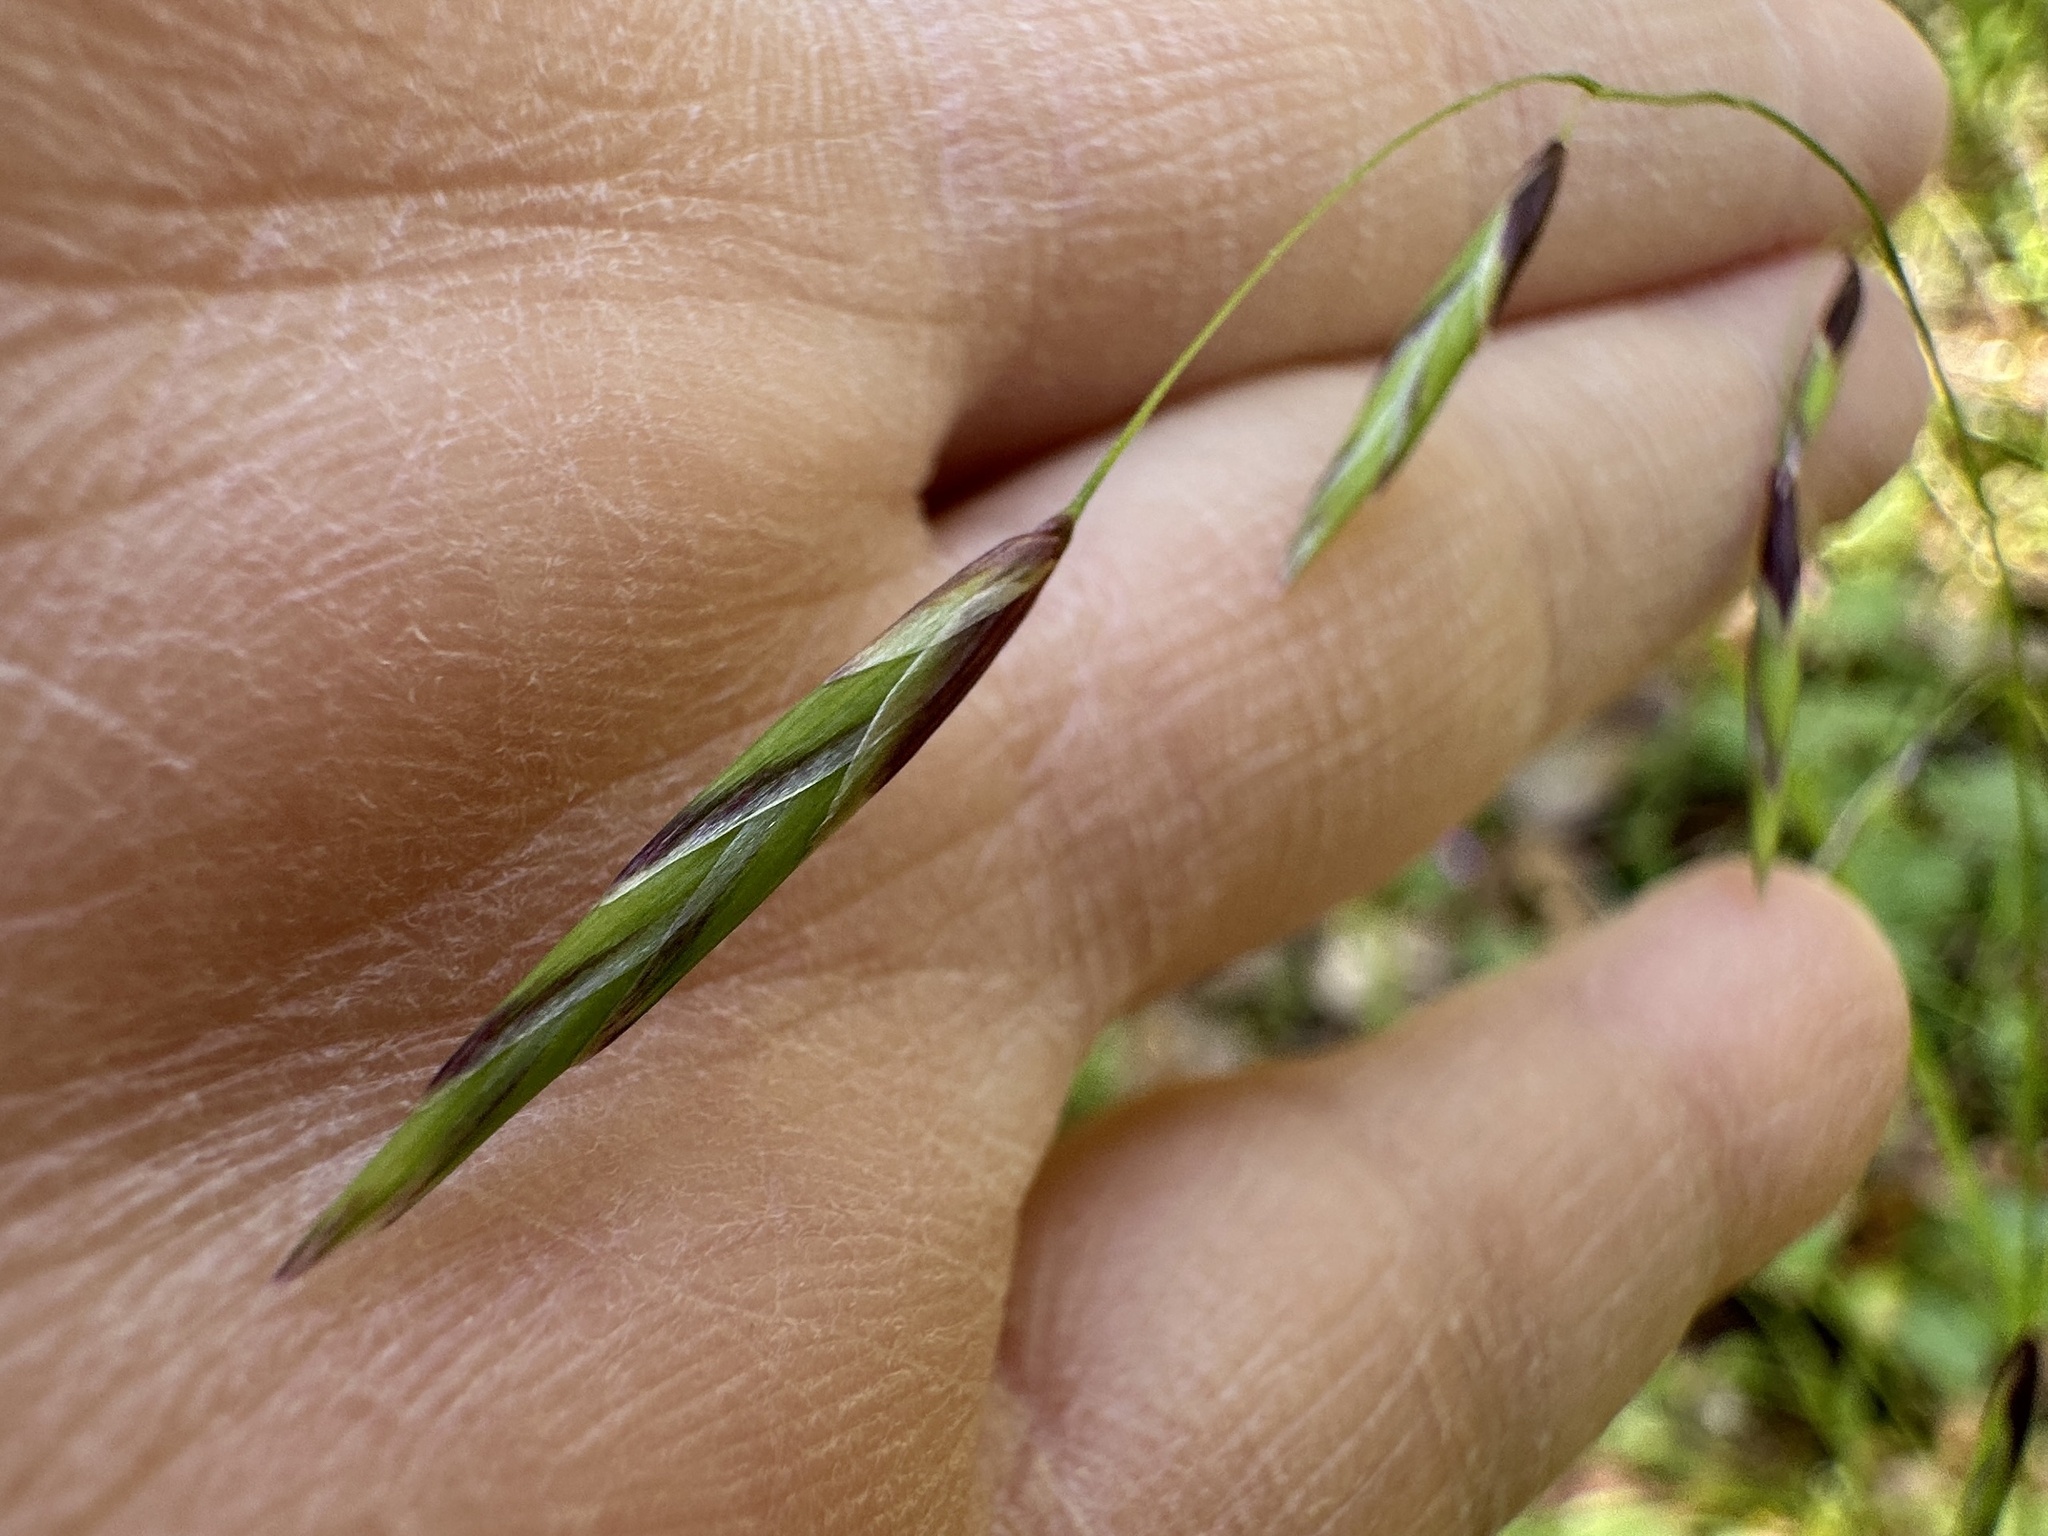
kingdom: Plantae
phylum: Tracheophyta
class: Liliopsida
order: Poales
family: Poaceae
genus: Melica
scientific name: Melica geyeri
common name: Geyer's oniongrass
